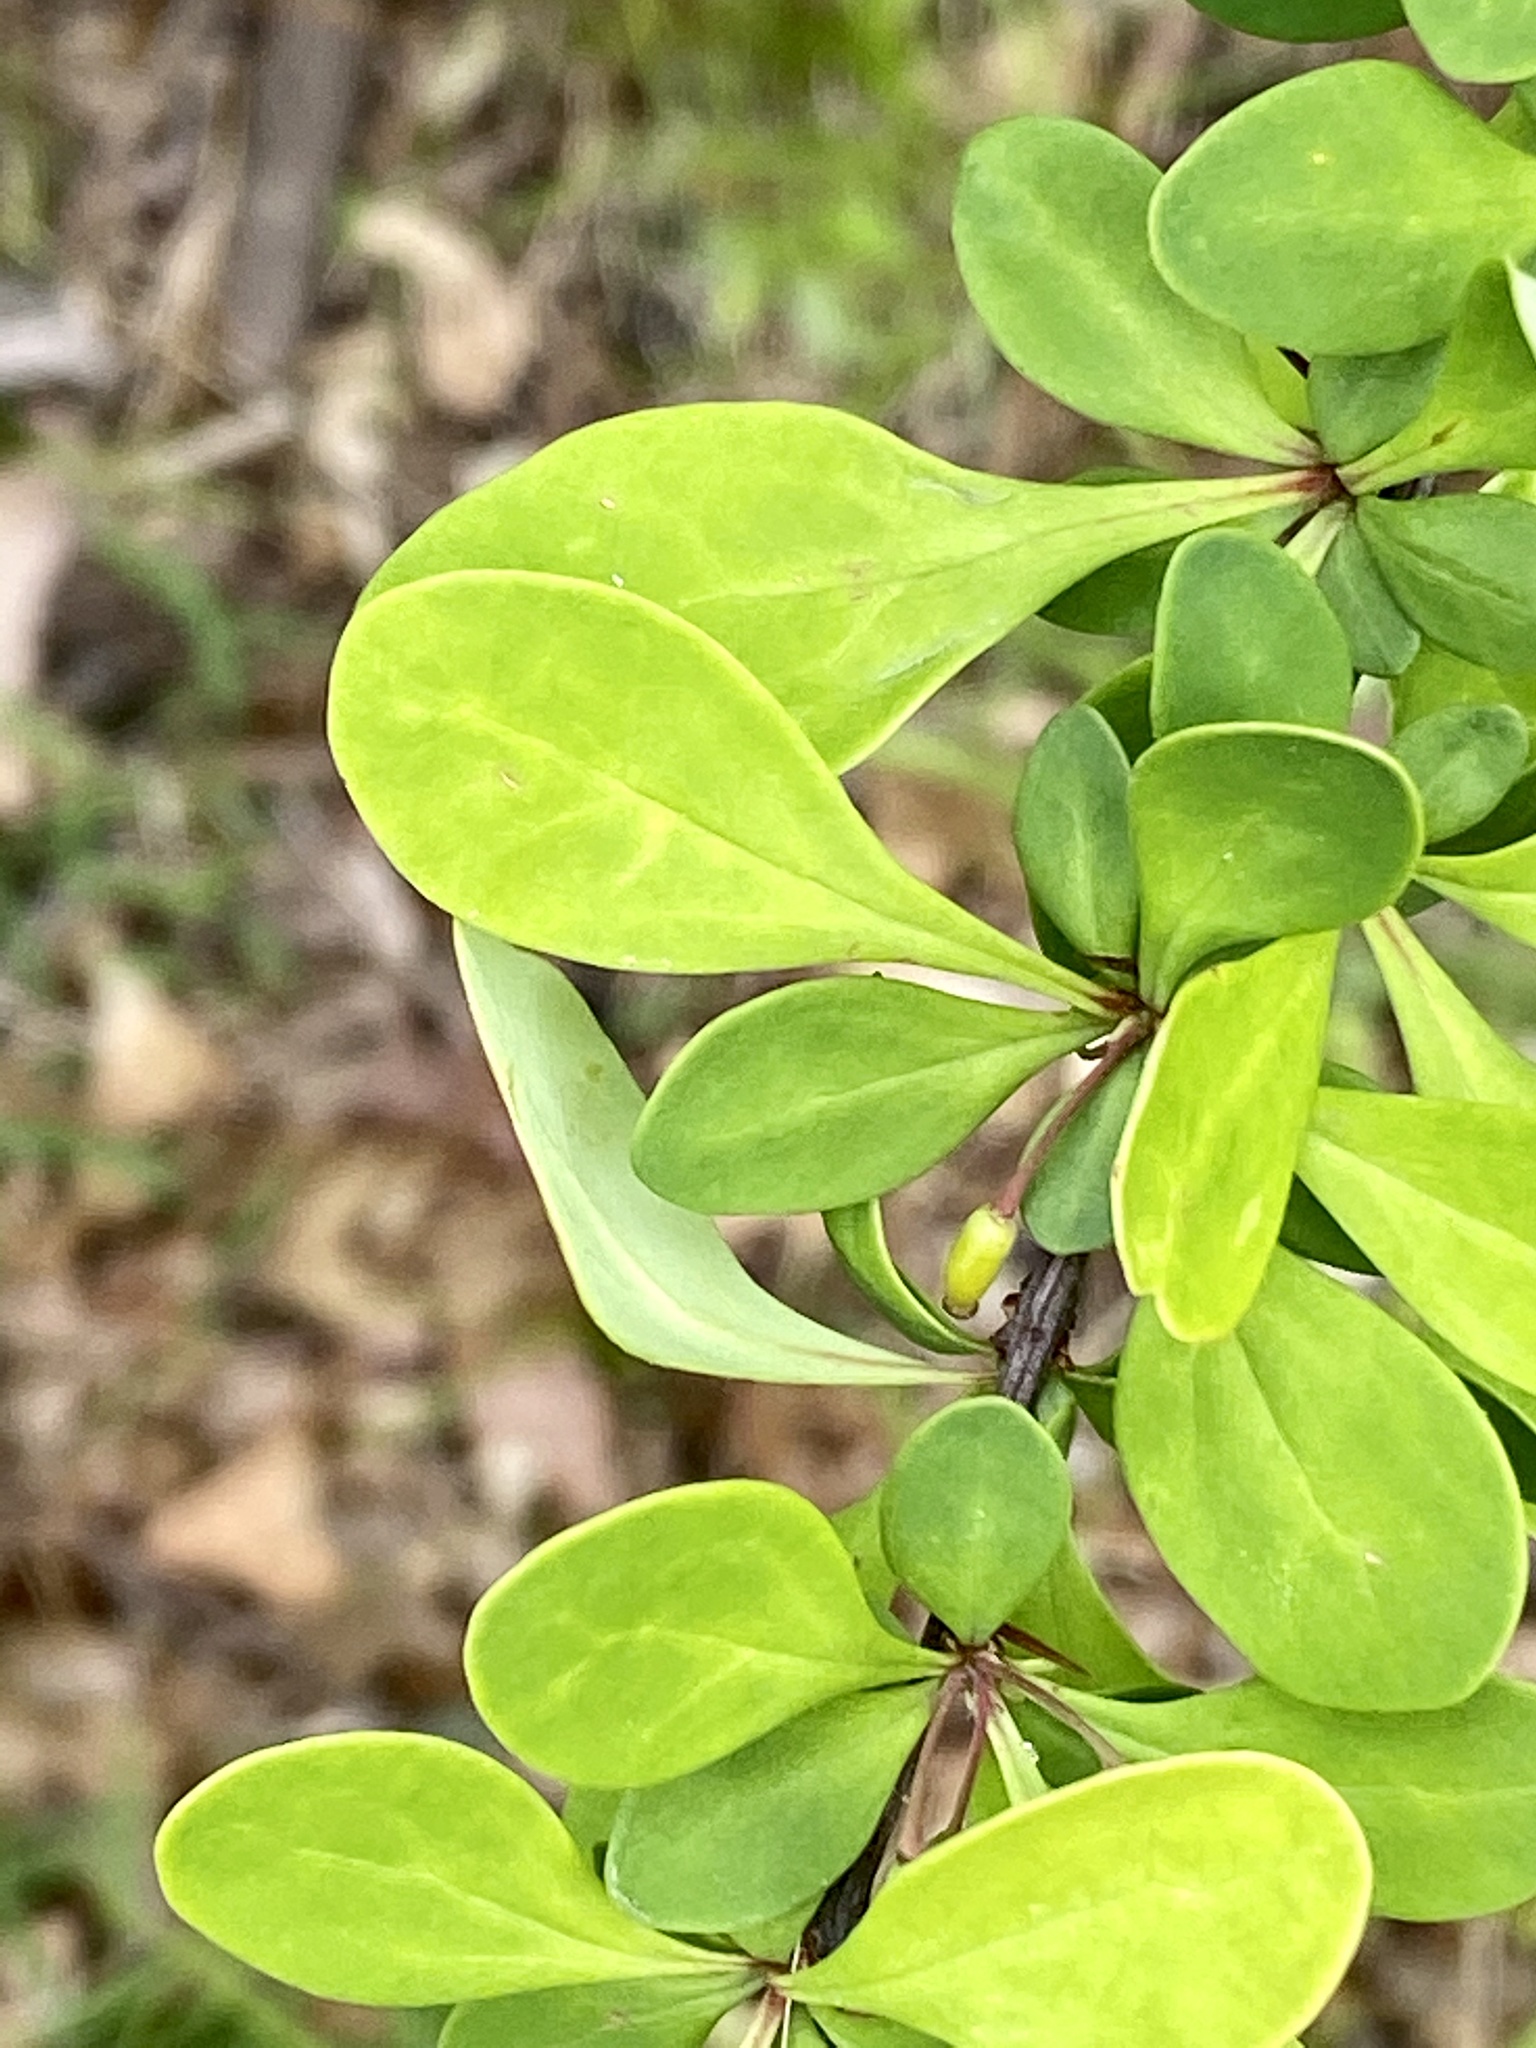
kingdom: Plantae
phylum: Tracheophyta
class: Magnoliopsida
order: Ranunculales
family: Berberidaceae
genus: Berberis
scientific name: Berberis thunbergii
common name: Japanese barberry
